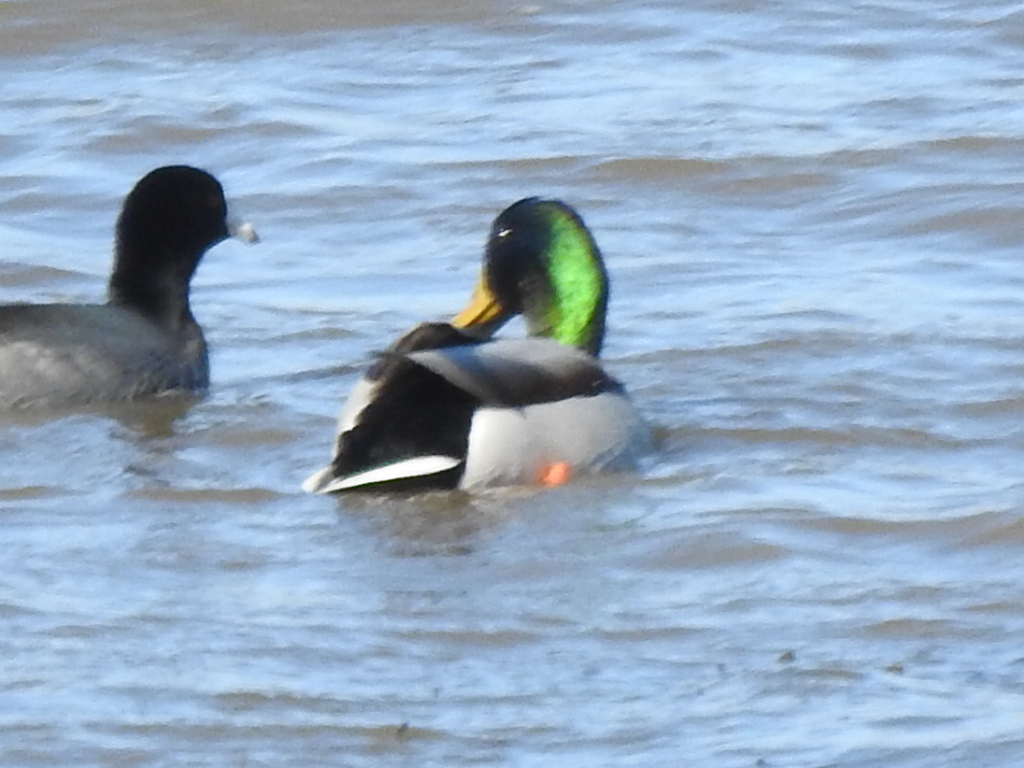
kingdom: Animalia
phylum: Chordata
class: Aves
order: Anseriformes
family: Anatidae
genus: Anas
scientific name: Anas platyrhynchos
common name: Mallard
